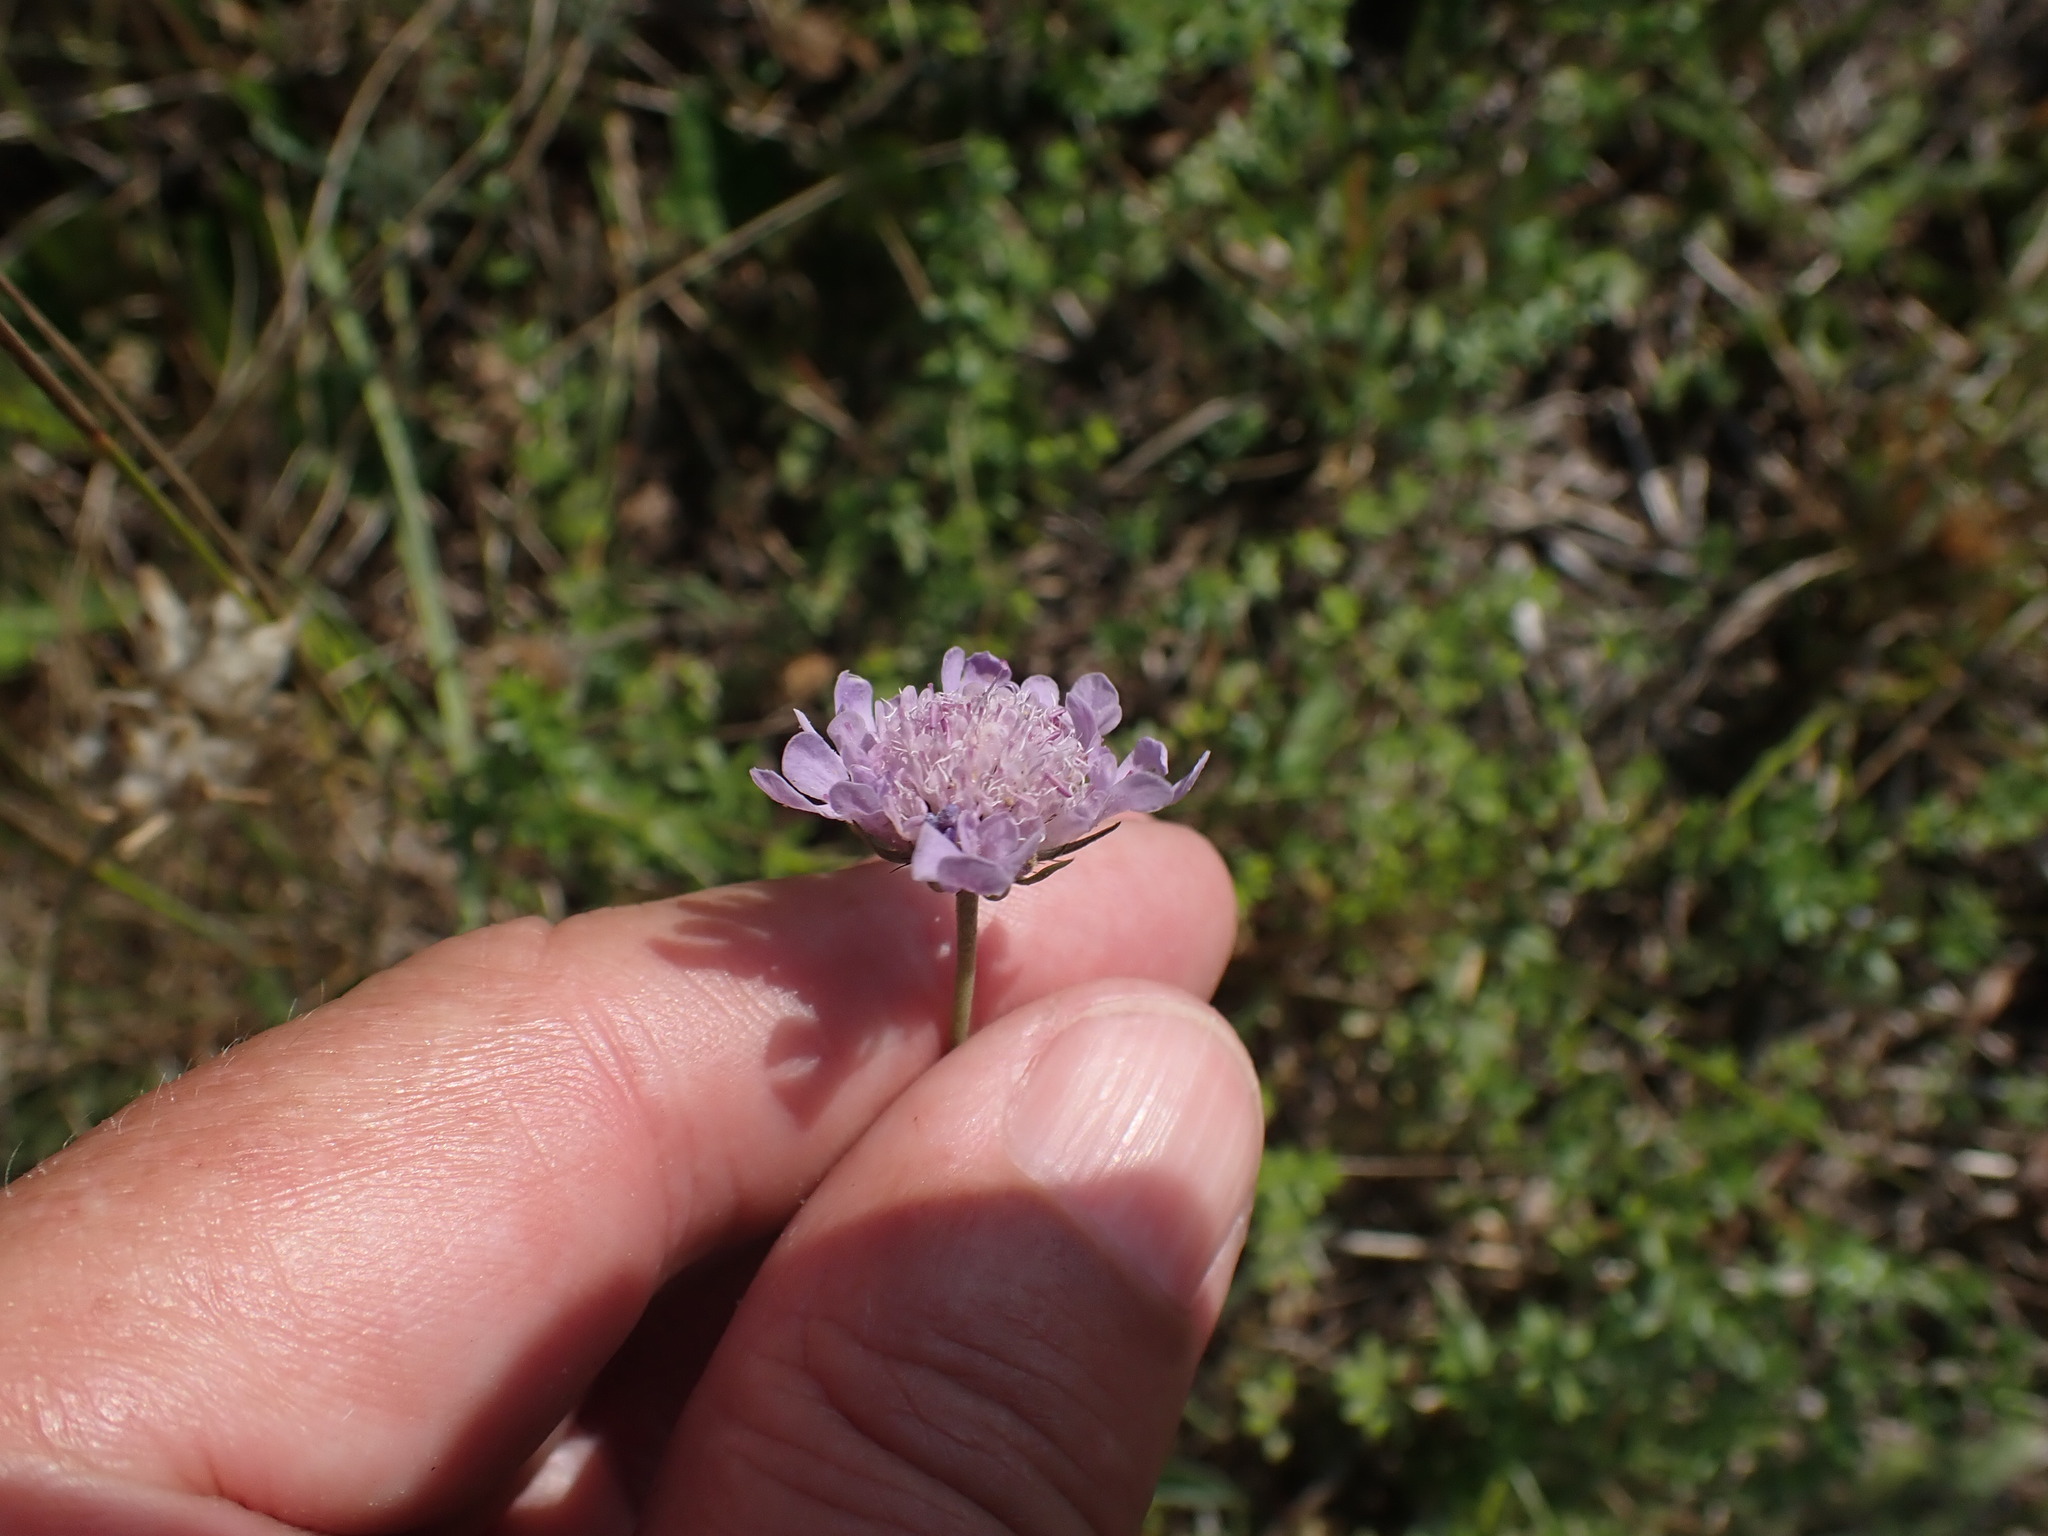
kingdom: Plantae
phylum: Tracheophyta
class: Magnoliopsida
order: Dipsacales
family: Caprifoliaceae
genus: Scabiosa
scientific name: Scabiosa columbaria
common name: Small scabious
